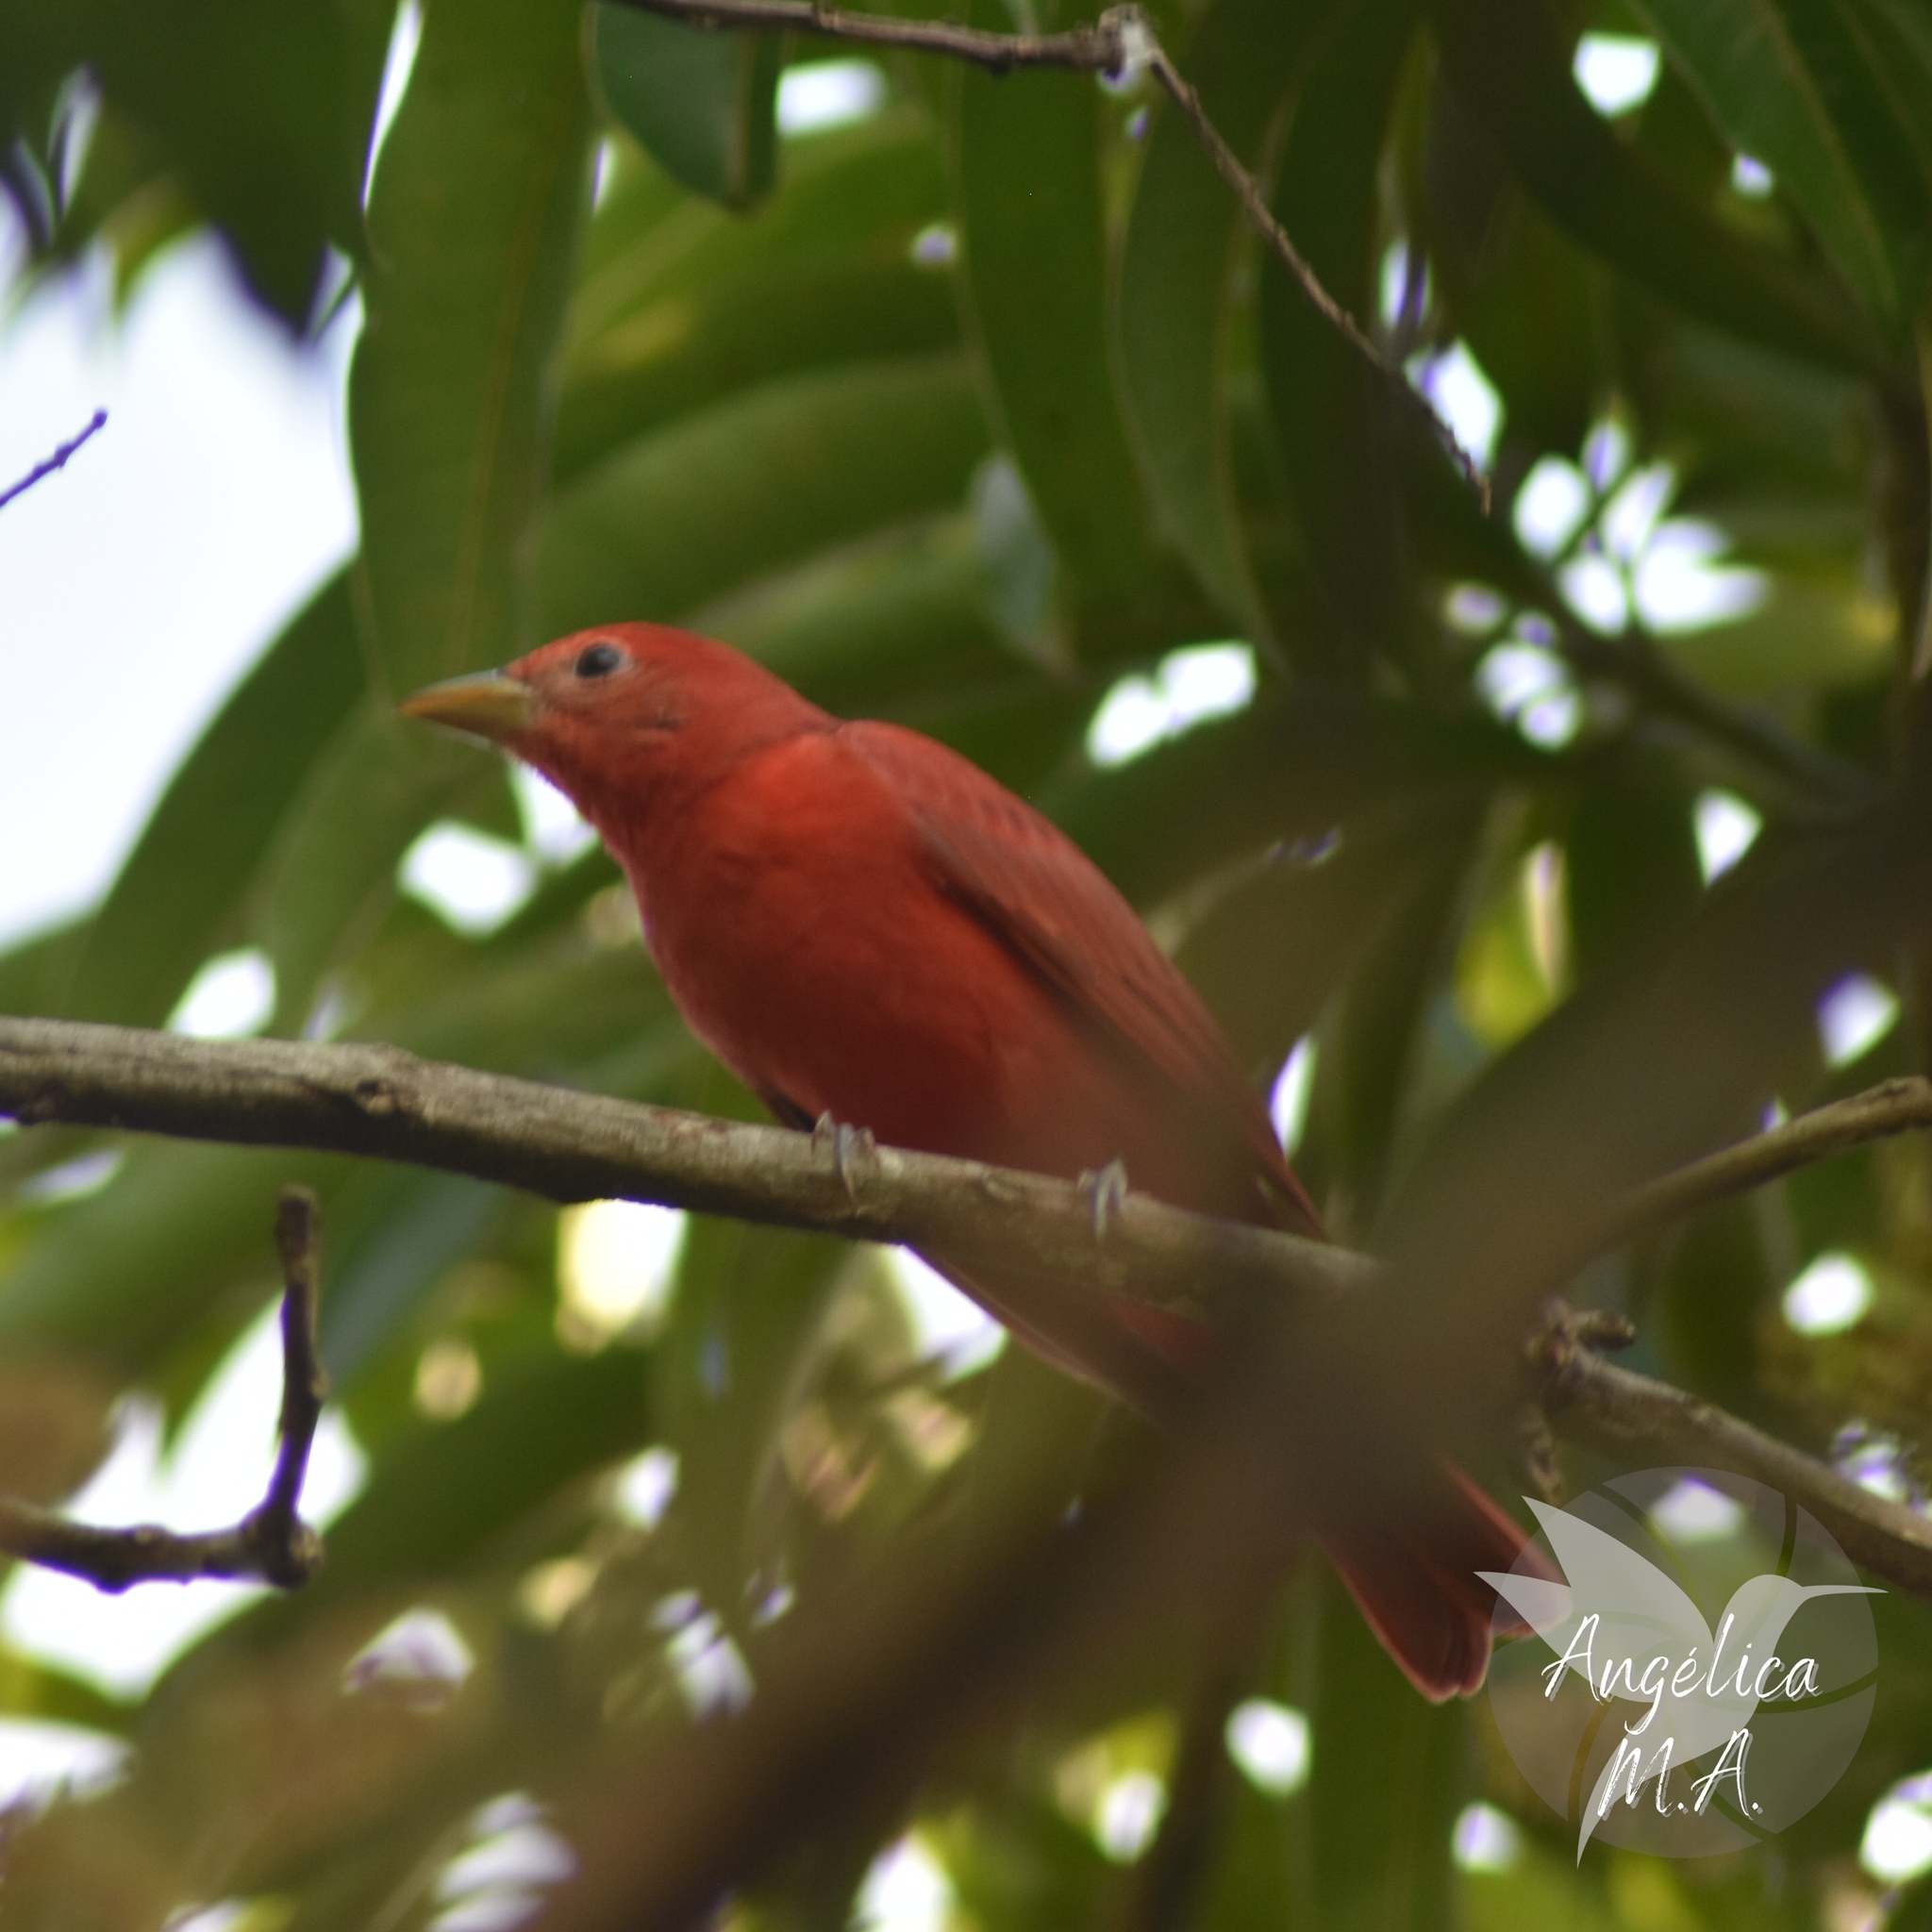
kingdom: Animalia
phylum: Chordata
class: Aves
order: Passeriformes
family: Cardinalidae
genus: Piranga
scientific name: Piranga rubra
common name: Summer tanager
